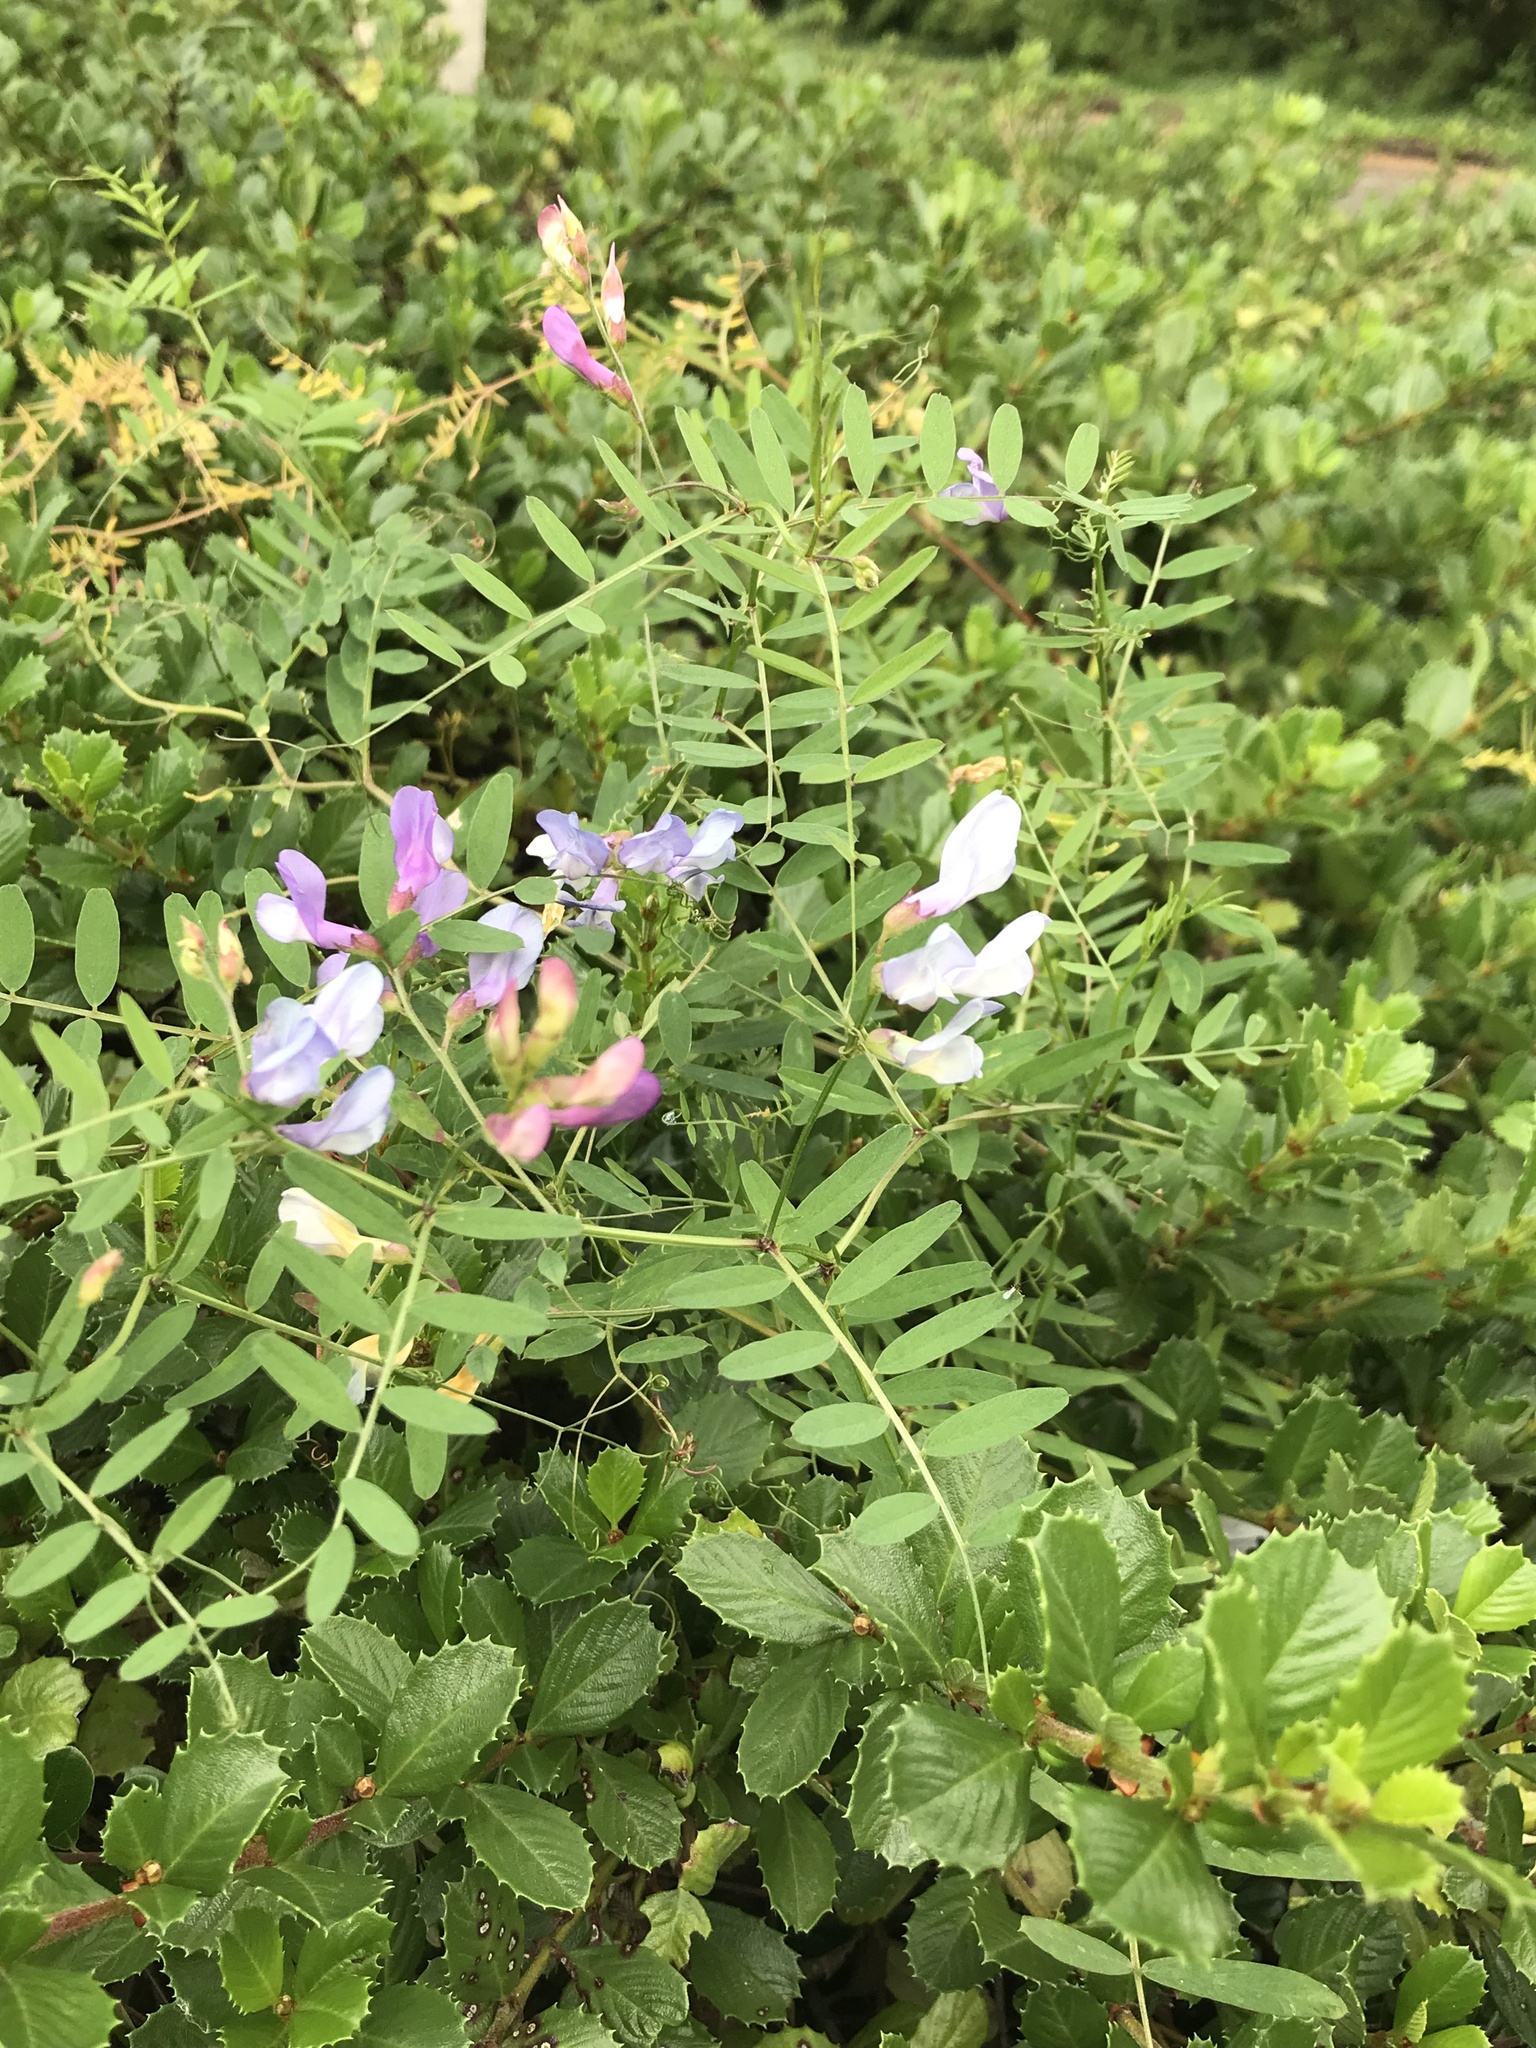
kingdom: Plantae
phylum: Tracheophyta
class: Magnoliopsida
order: Fabales
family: Fabaceae
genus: Vicia
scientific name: Vicia americana
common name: American vetch
